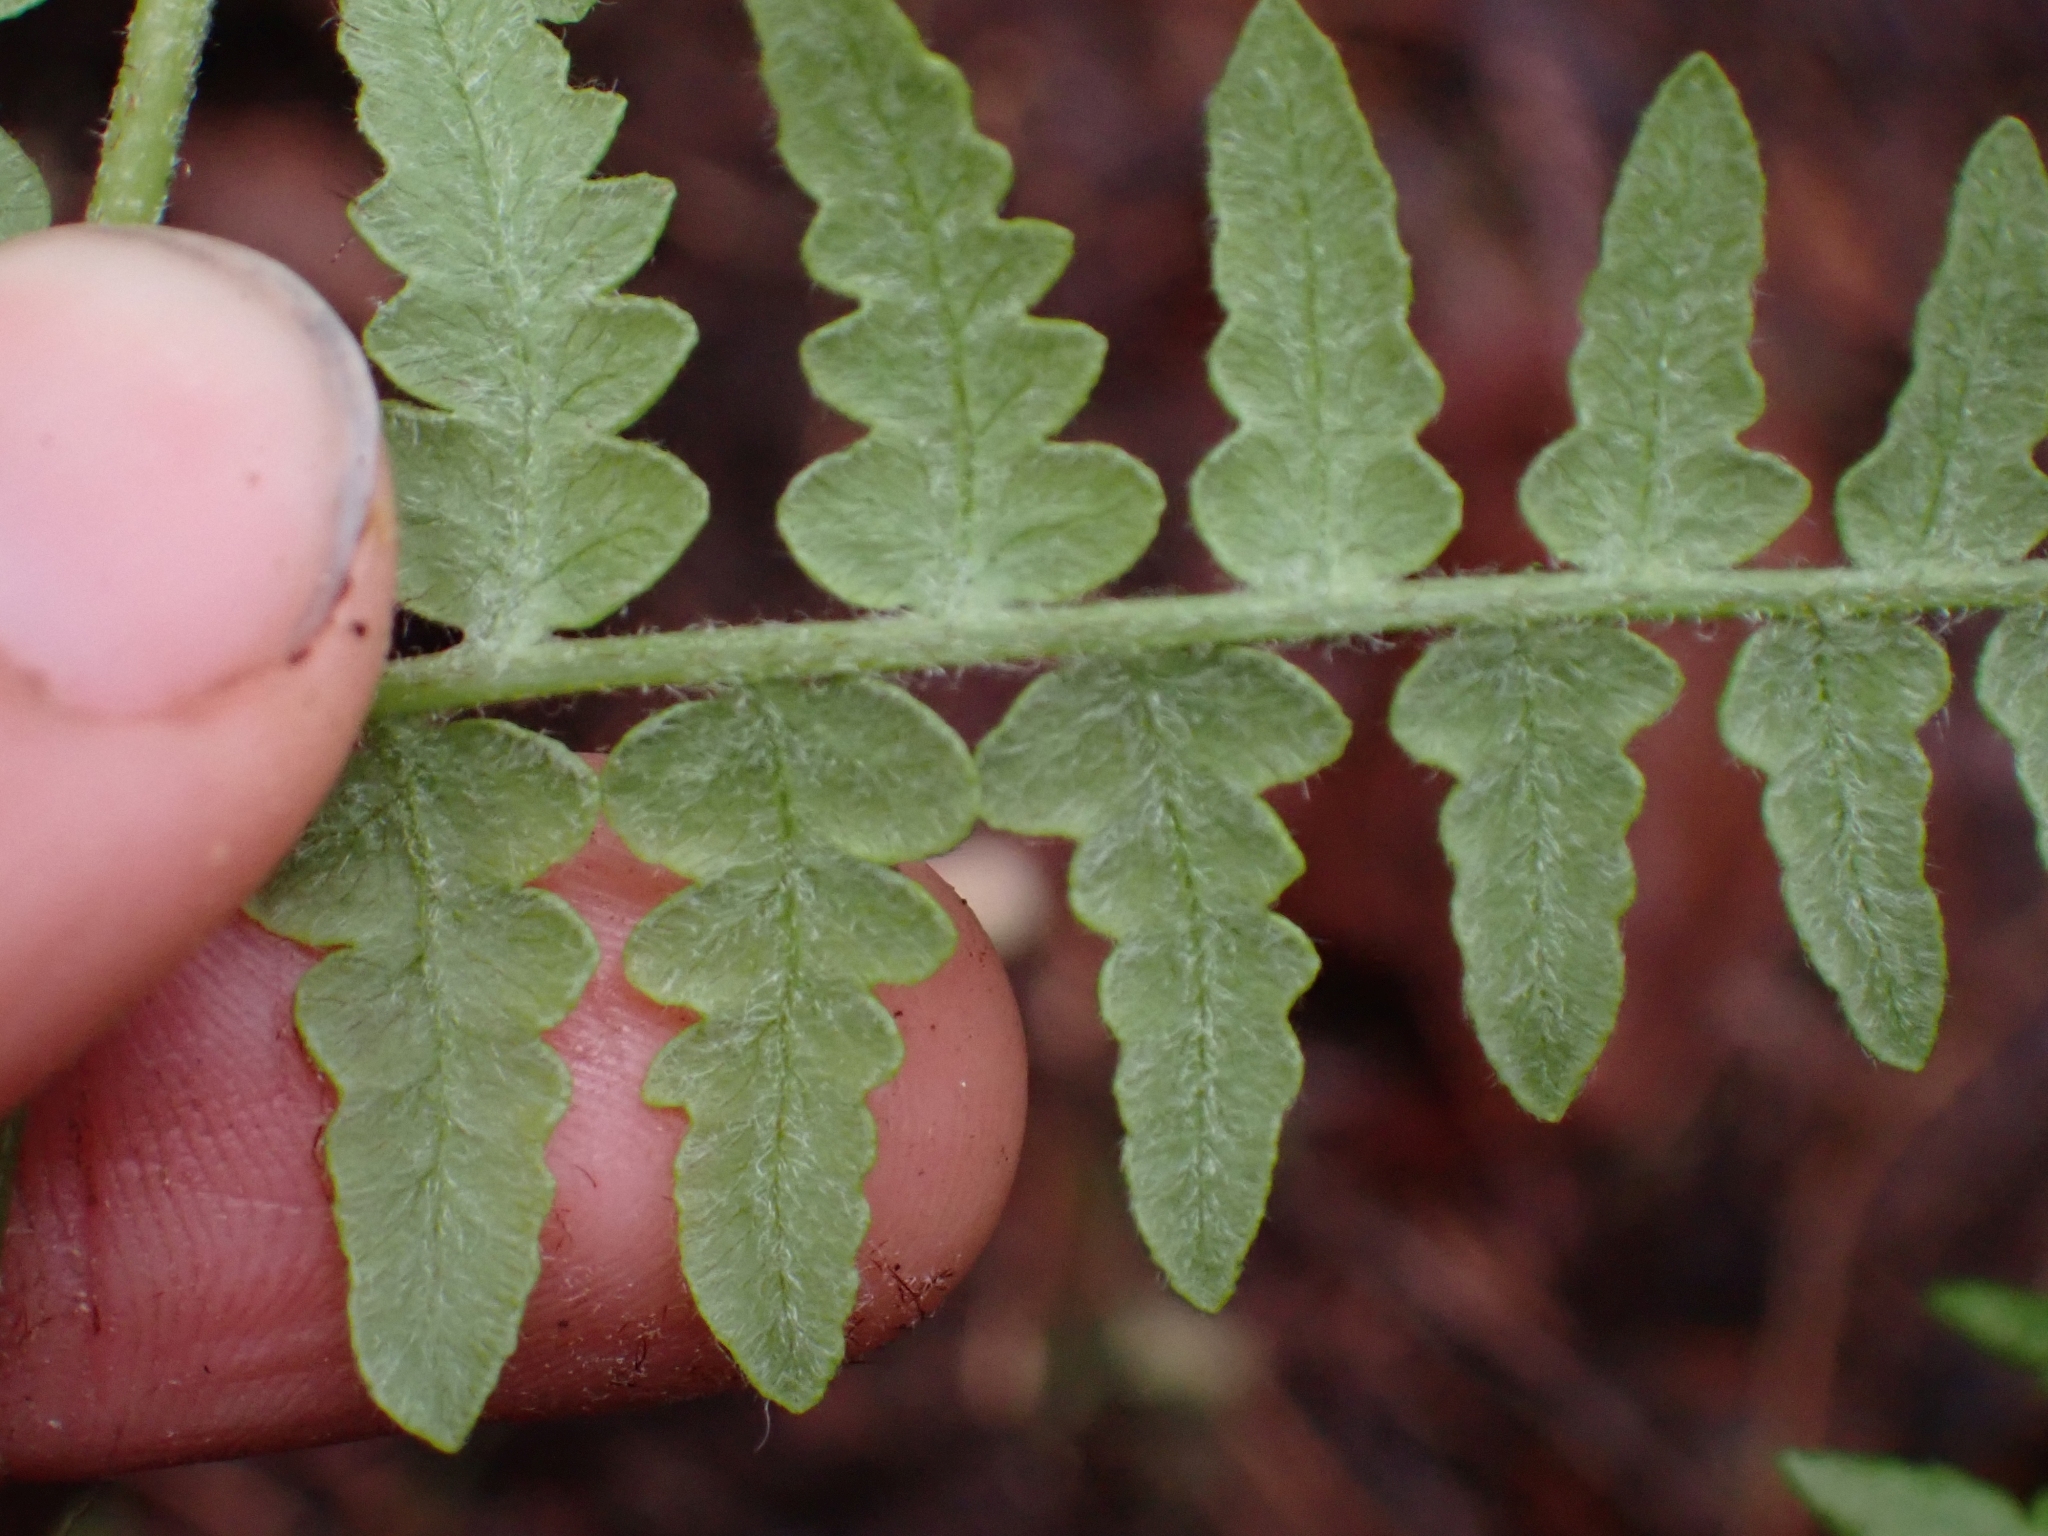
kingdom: Plantae
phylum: Tracheophyta
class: Polypodiopsida
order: Polypodiales
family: Dennstaedtiaceae
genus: Pteridium
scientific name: Pteridium aquilinum
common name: Bracken
